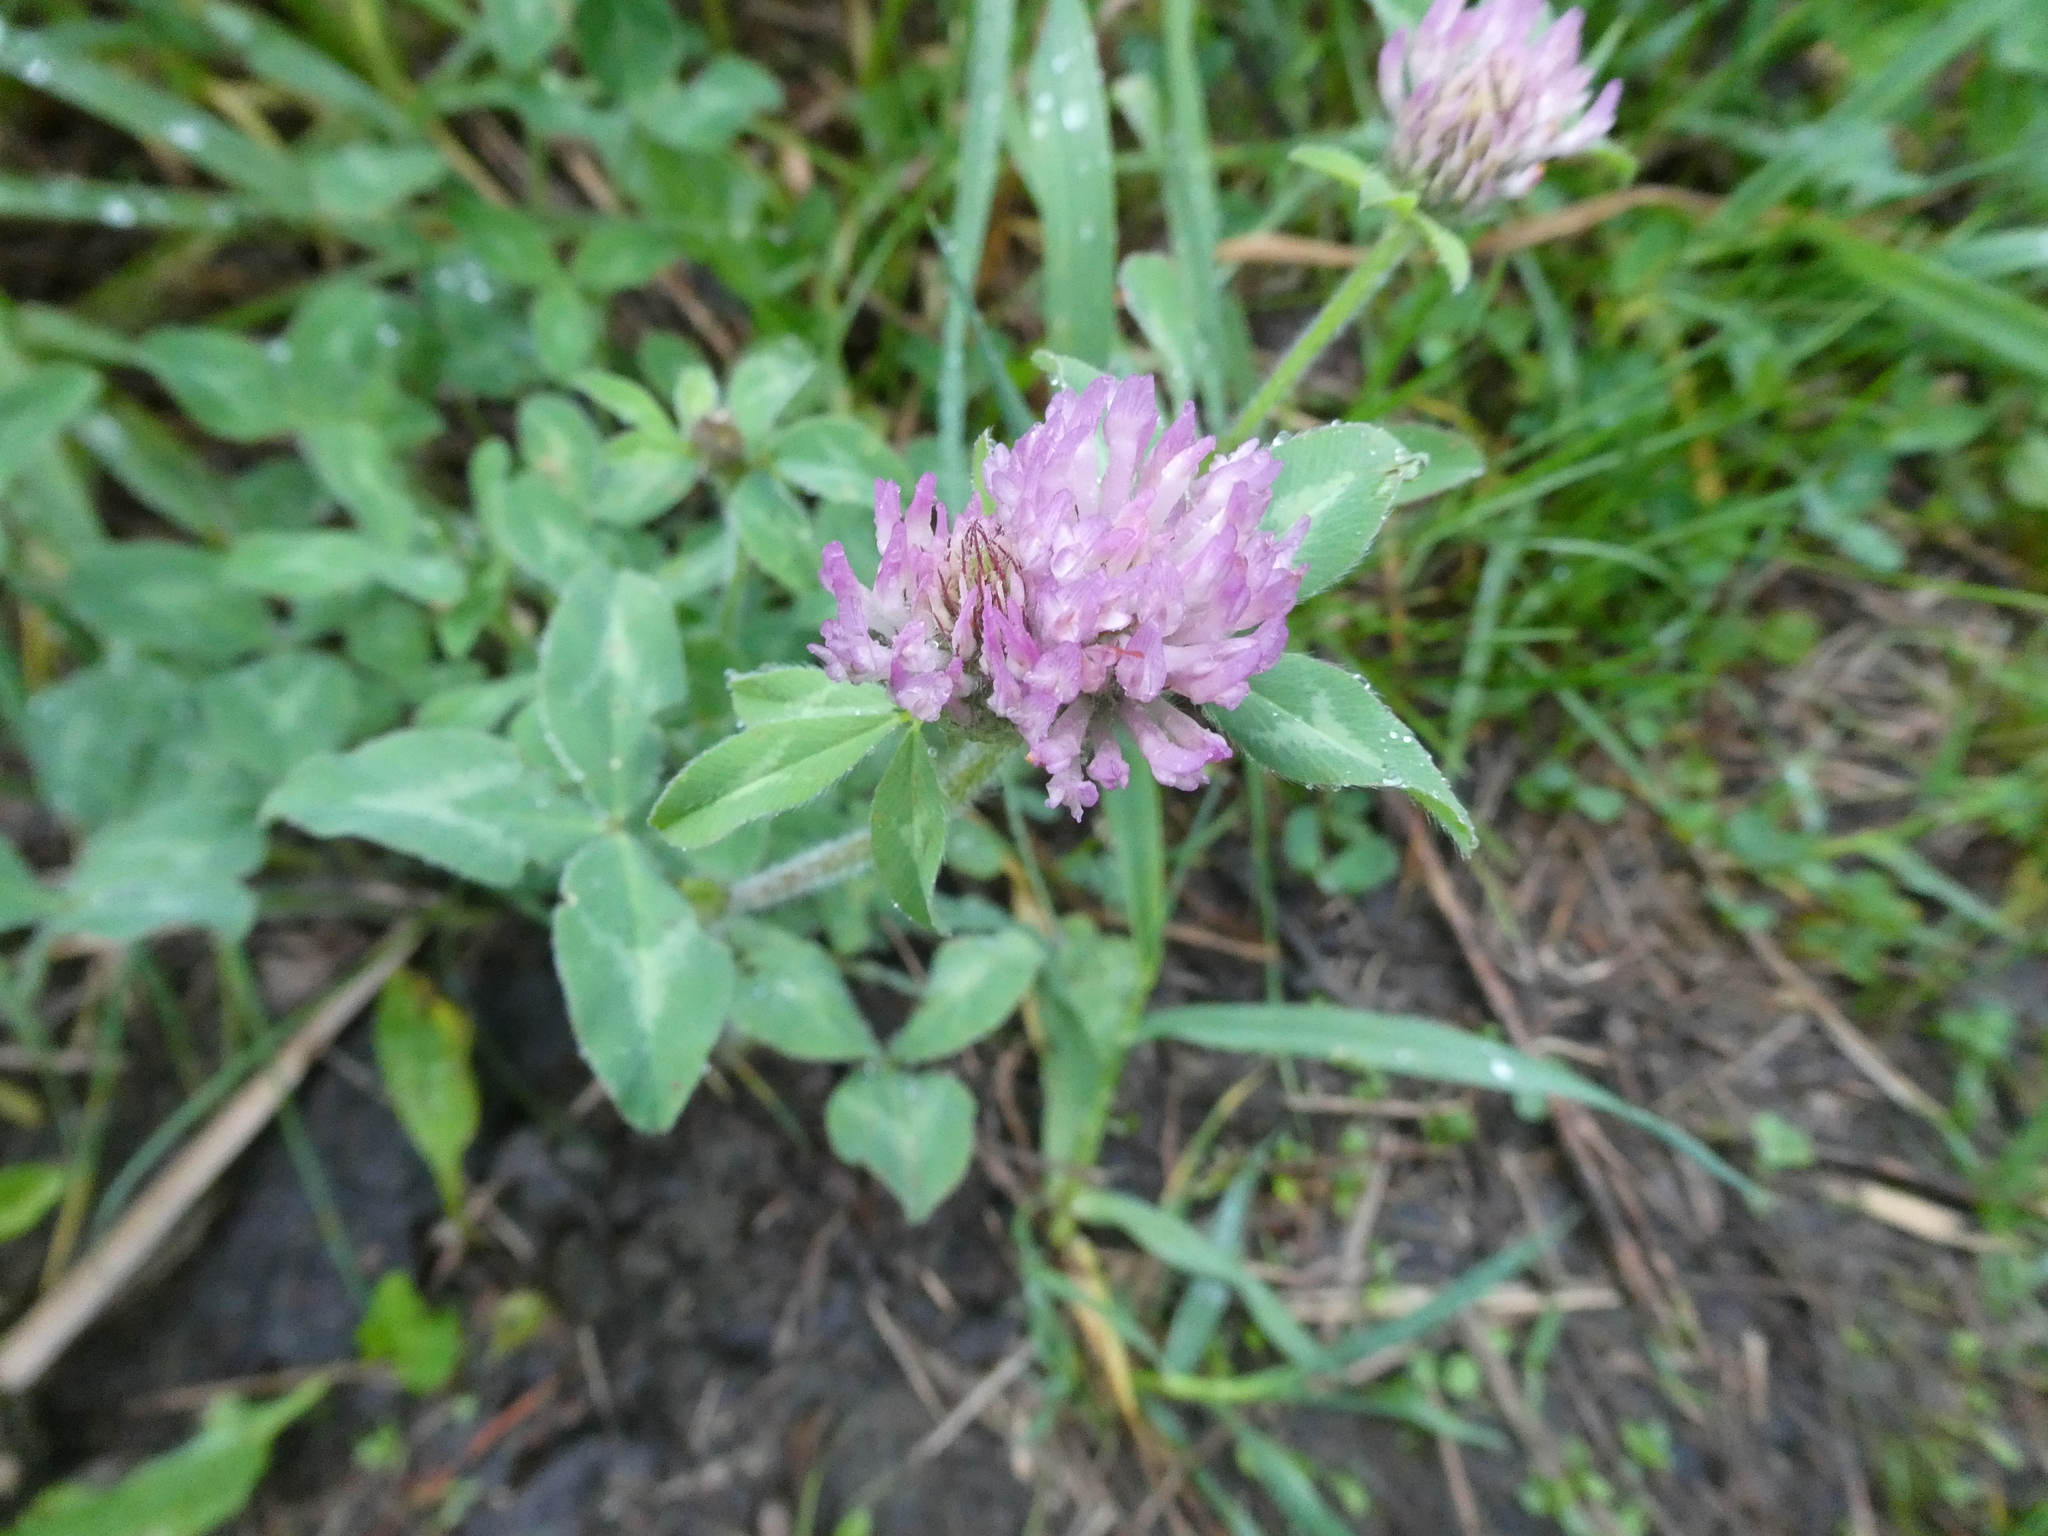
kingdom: Plantae
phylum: Tracheophyta
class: Magnoliopsida
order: Fabales
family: Fabaceae
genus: Trifolium
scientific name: Trifolium pratense
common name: Red clover
